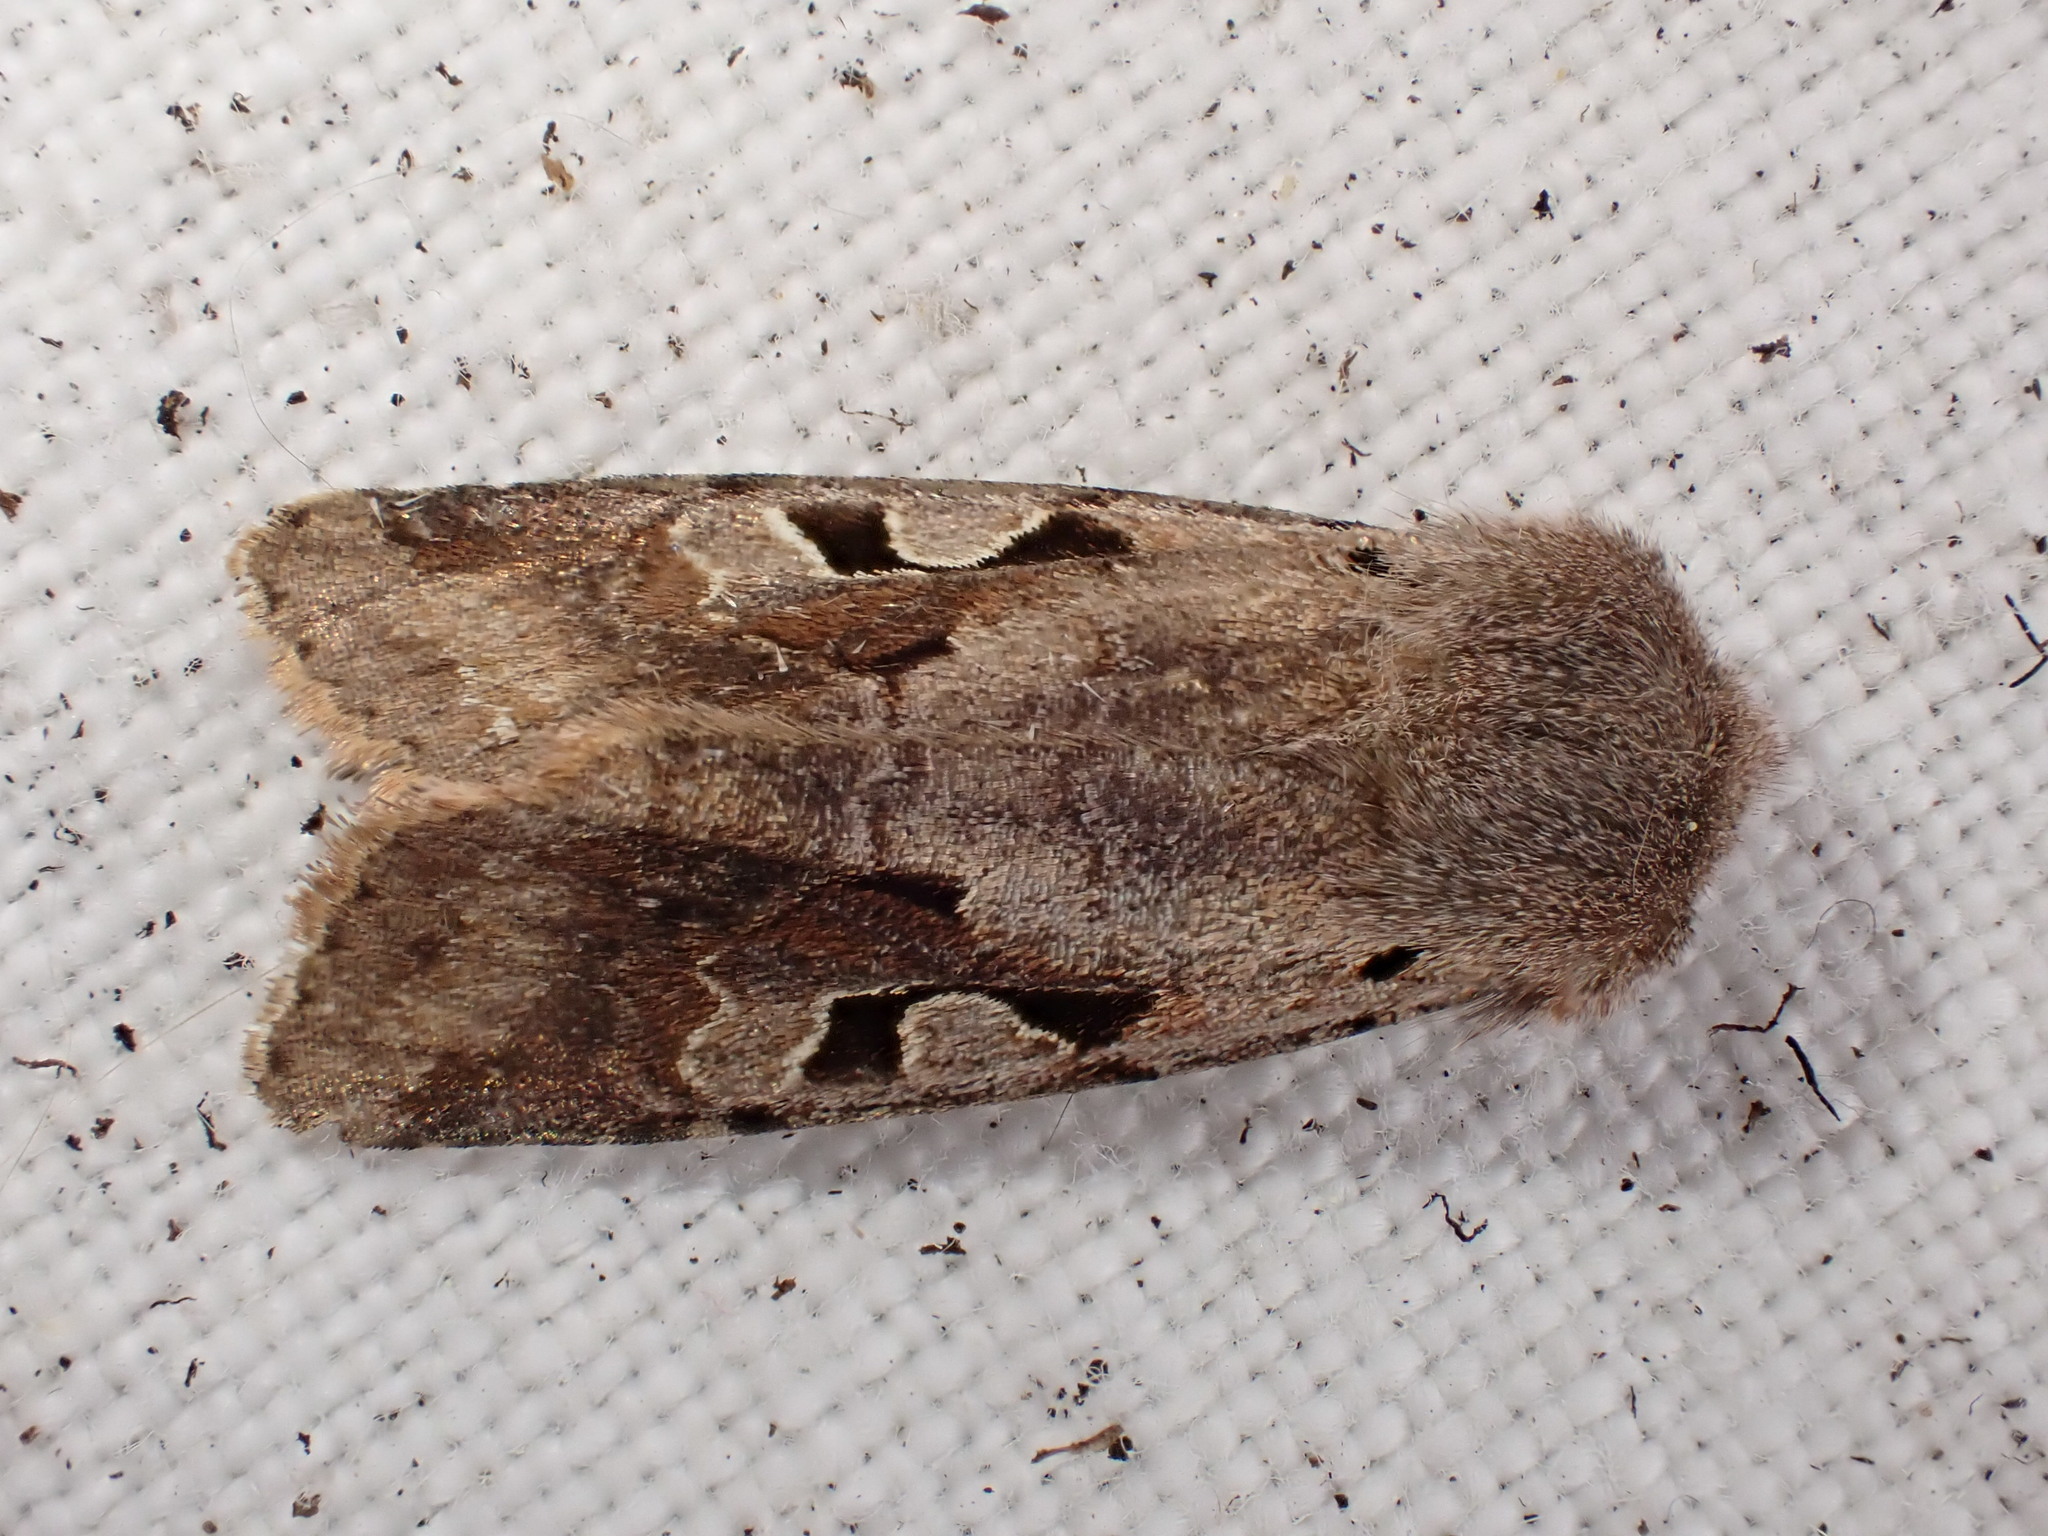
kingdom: Animalia
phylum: Arthropoda
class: Insecta
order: Lepidoptera
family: Noctuidae
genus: Orthosia
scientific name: Orthosia gothica
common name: Hebrew character
